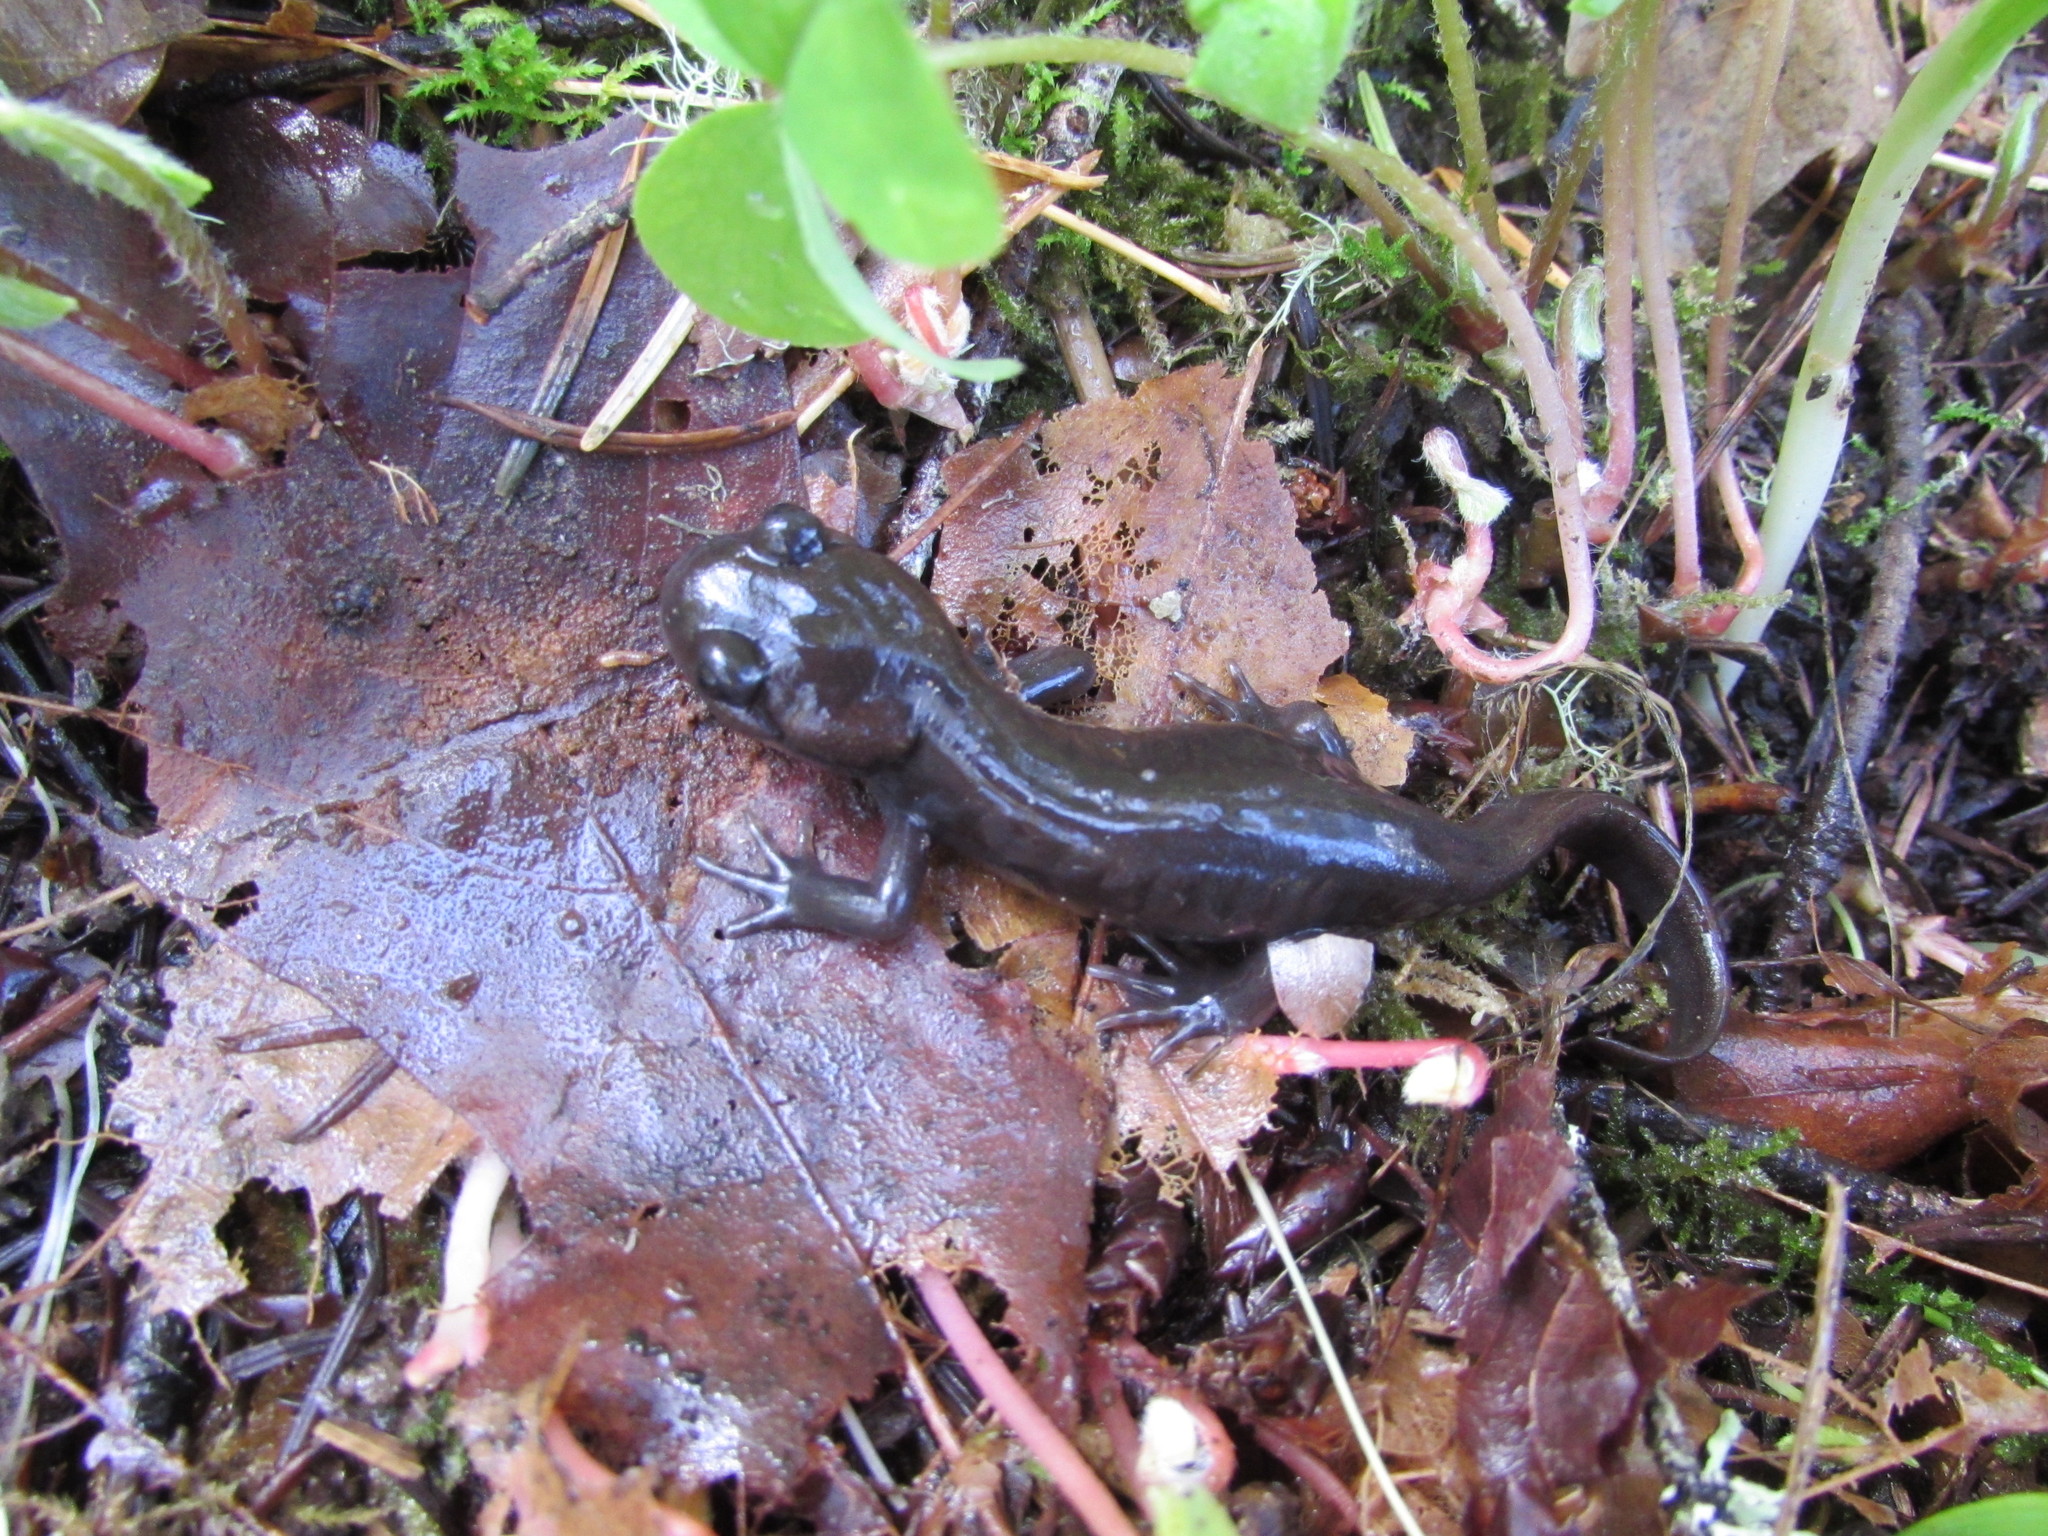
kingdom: Animalia
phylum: Chordata
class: Amphibia
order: Caudata
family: Ambystomatidae
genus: Ambystoma
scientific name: Ambystoma gracile
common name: Northwestern salamander
